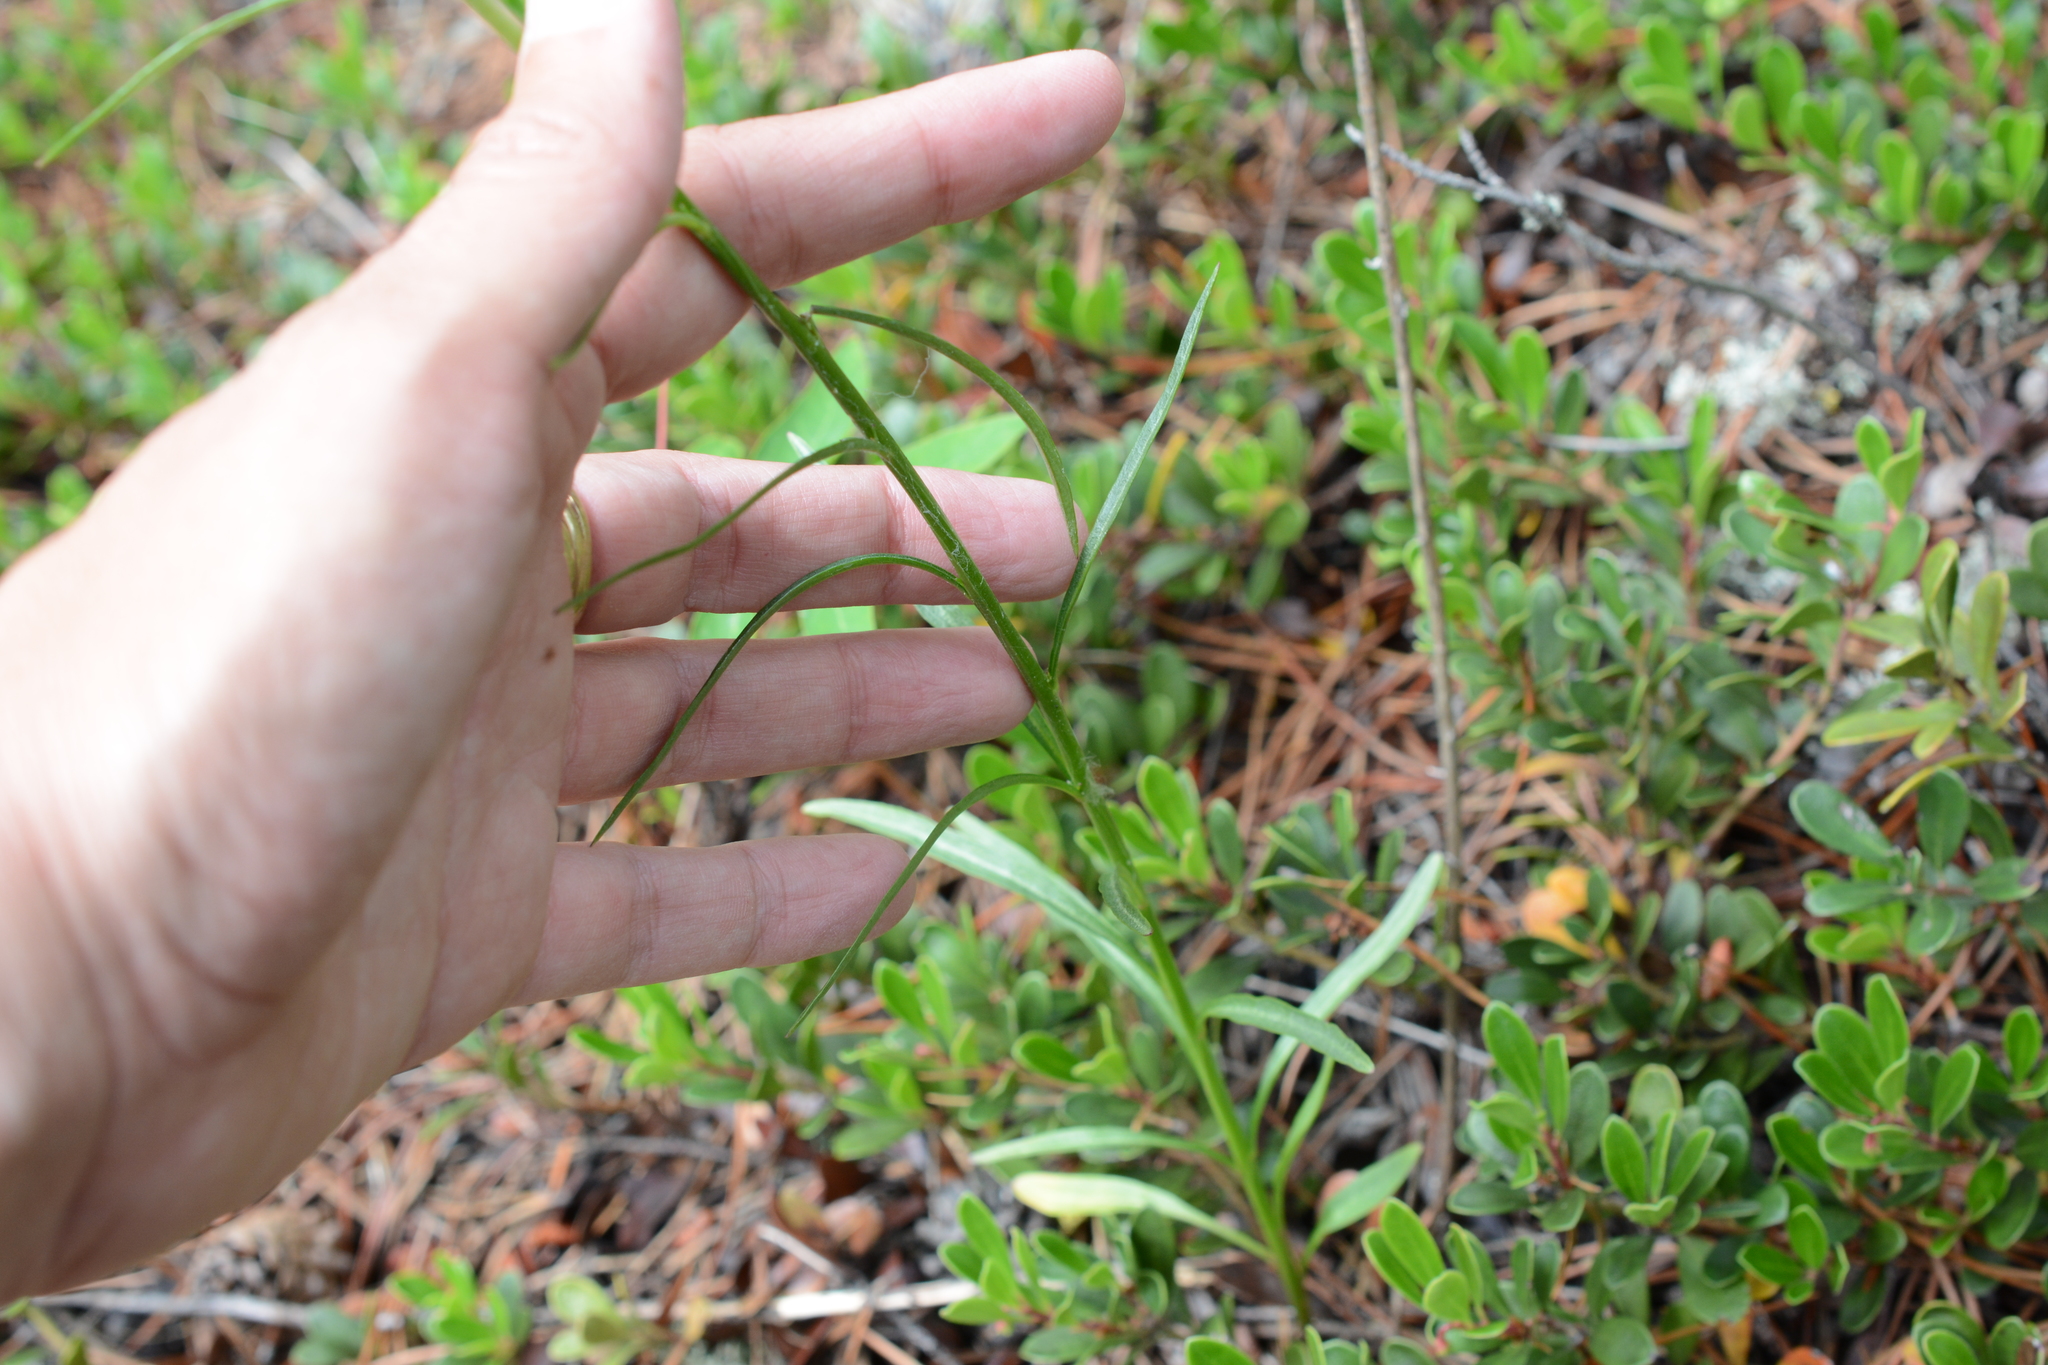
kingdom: Plantae
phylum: Tracheophyta
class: Magnoliopsida
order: Asterales
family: Campanulaceae
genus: Campanula
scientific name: Campanula alaskana
